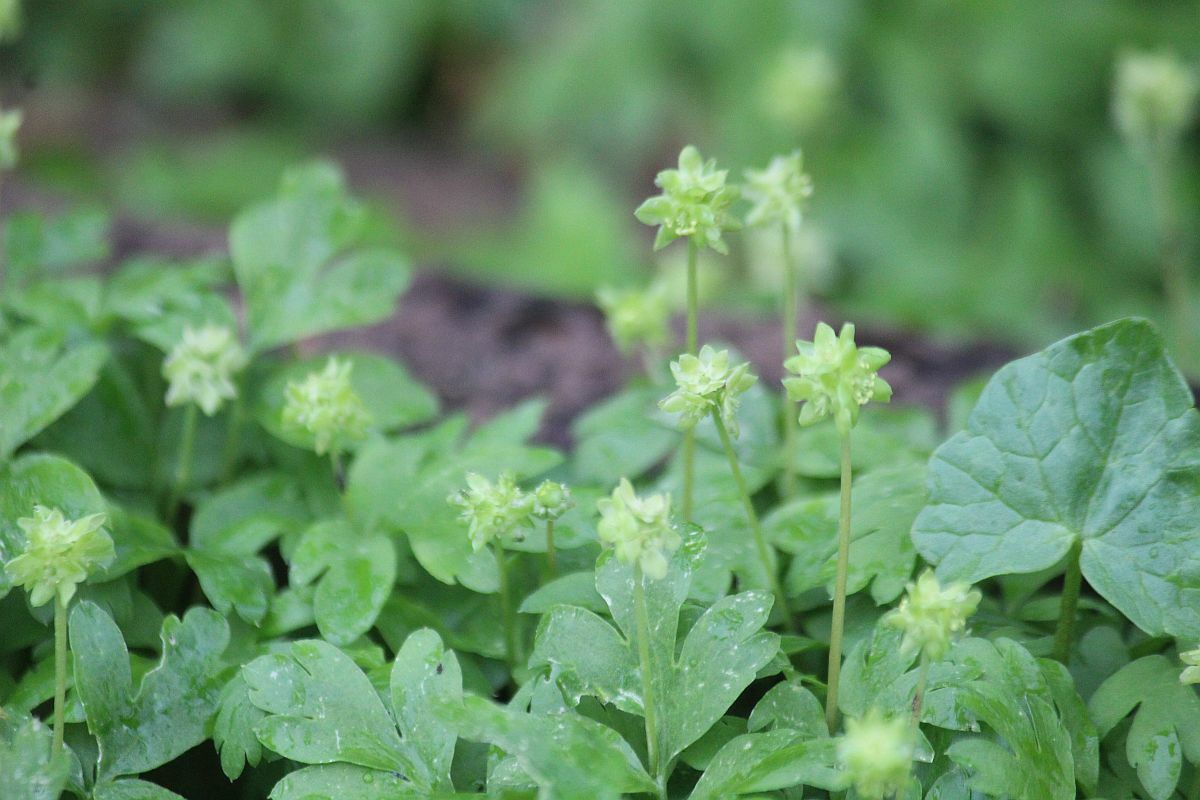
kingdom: Plantae
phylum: Tracheophyta
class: Magnoliopsida
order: Dipsacales
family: Viburnaceae
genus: Adoxa
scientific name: Adoxa moschatellina
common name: Moschatel
